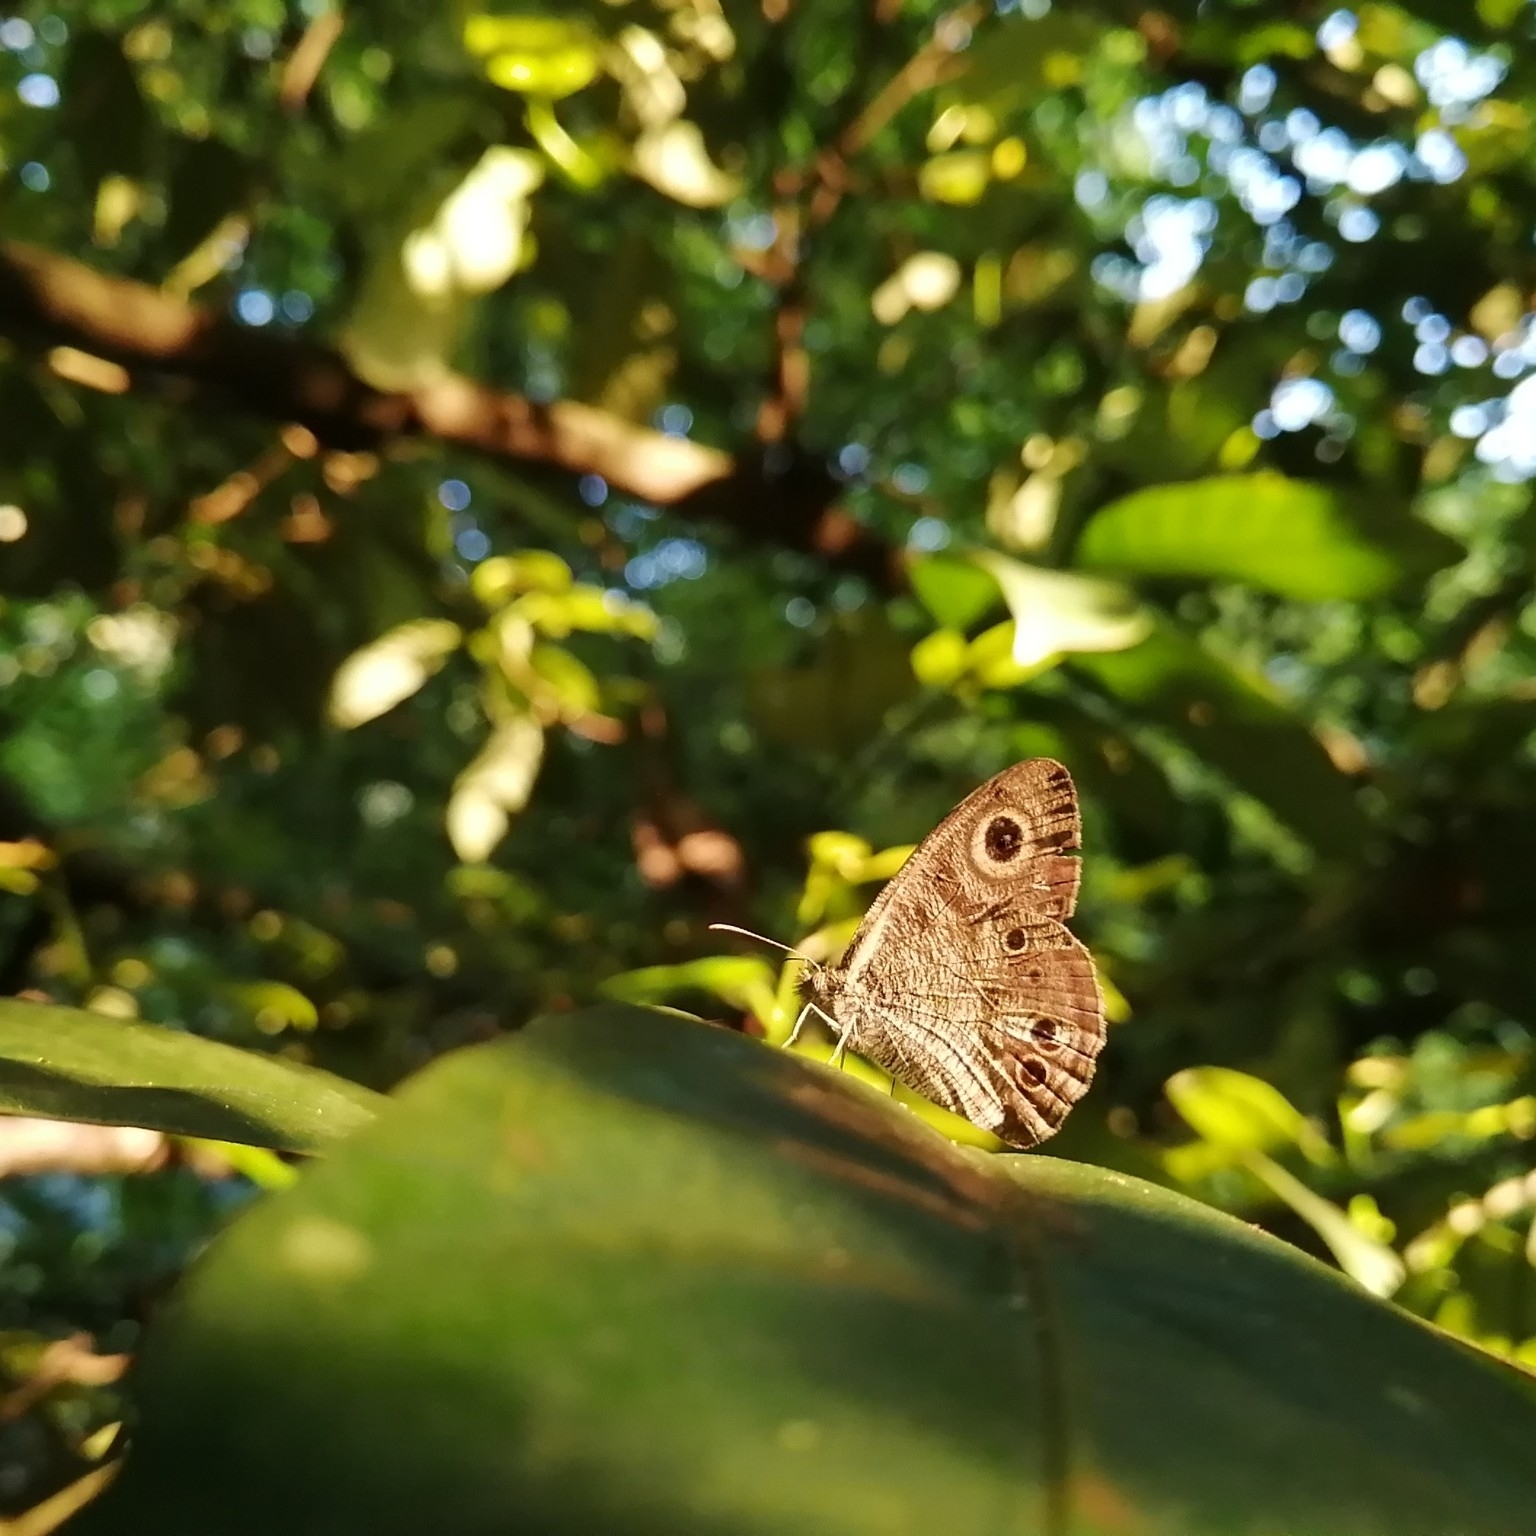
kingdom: Animalia
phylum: Arthropoda
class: Insecta
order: Lepidoptera
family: Nymphalidae
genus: Ypthima
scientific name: Ypthima baldus
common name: Common five-ring
